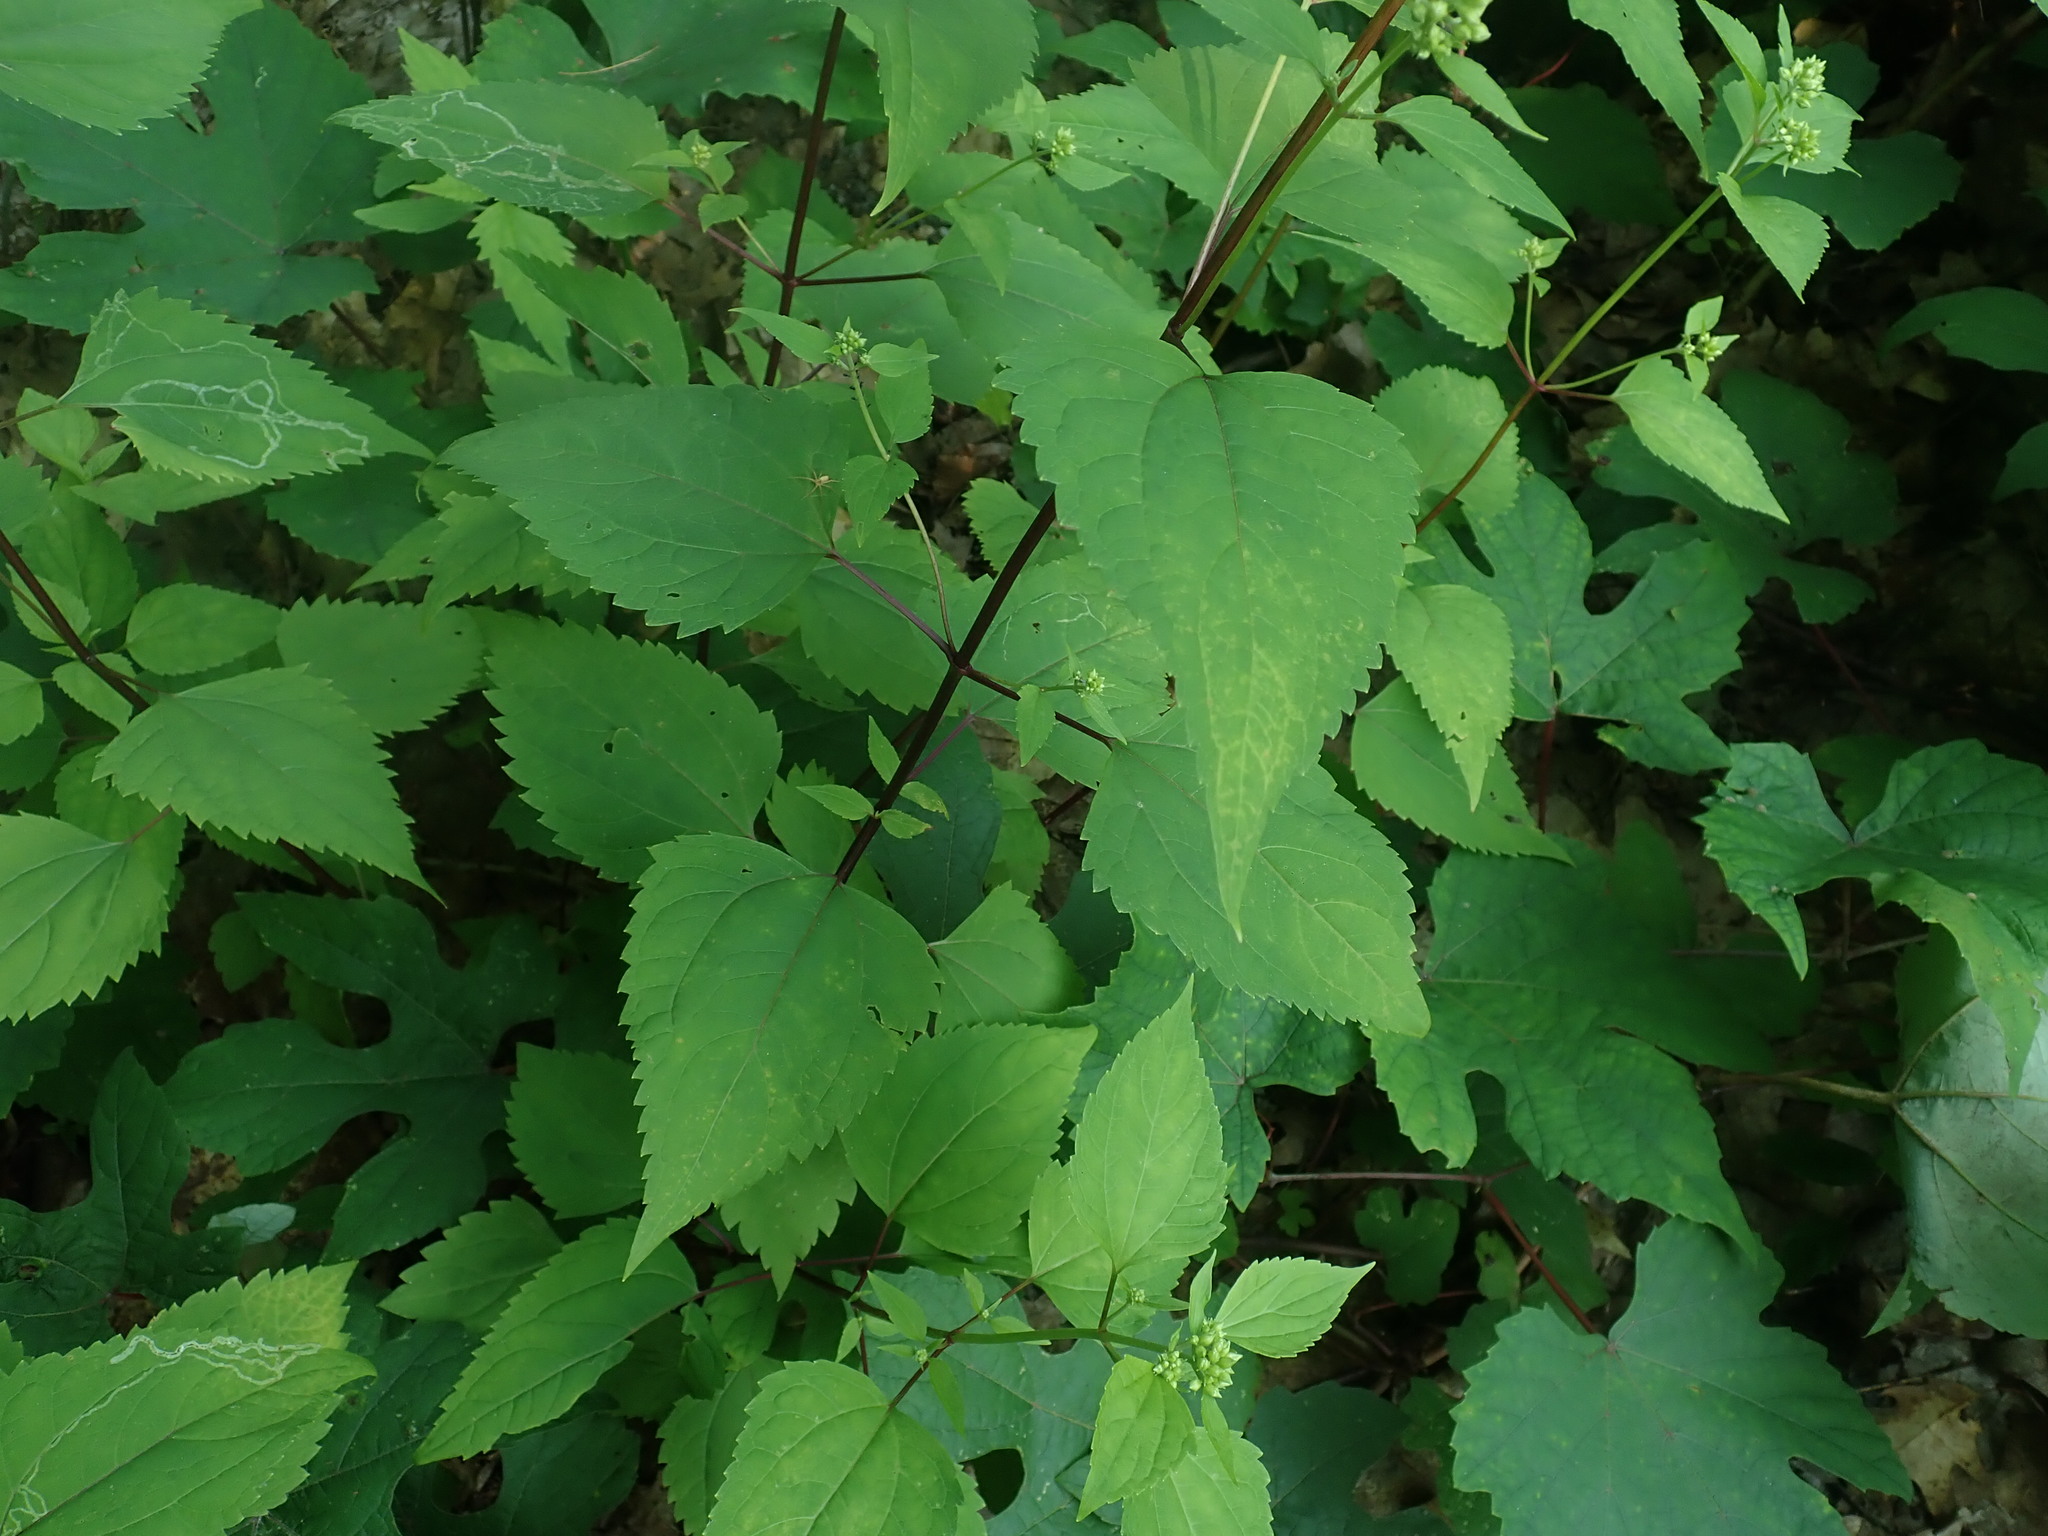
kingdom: Plantae
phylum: Tracheophyta
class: Magnoliopsida
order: Asterales
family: Asteraceae
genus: Ageratina
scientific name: Ageratina altissima
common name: White snakeroot
